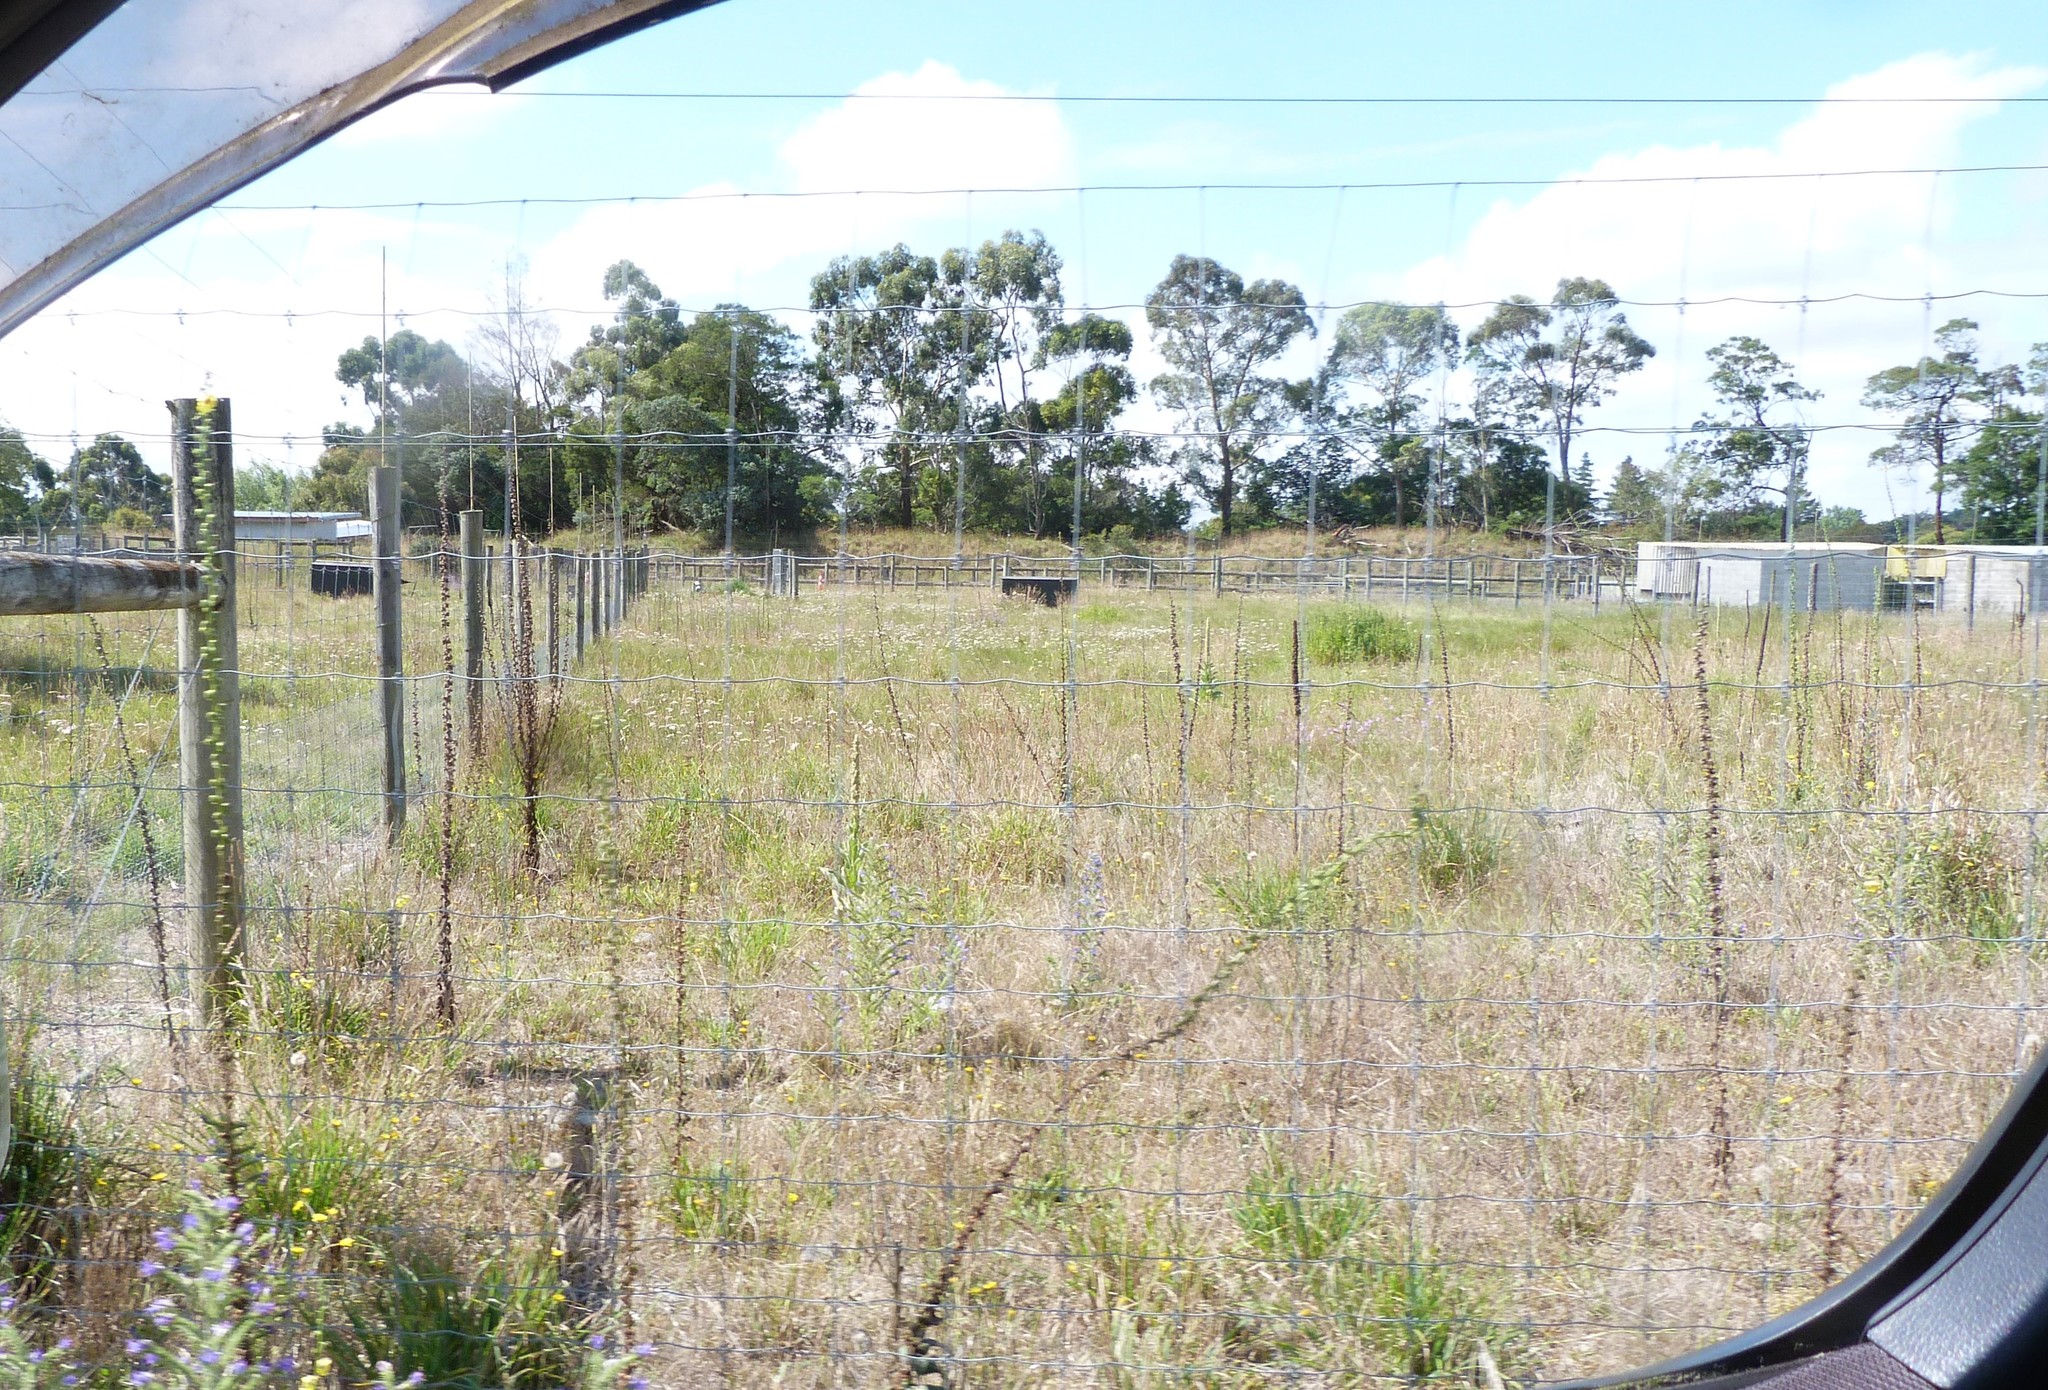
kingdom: Plantae
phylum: Tracheophyta
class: Magnoliopsida
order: Lamiales
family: Scrophulariaceae
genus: Verbascum
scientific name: Verbascum virgatum
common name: Twiggy mullein
